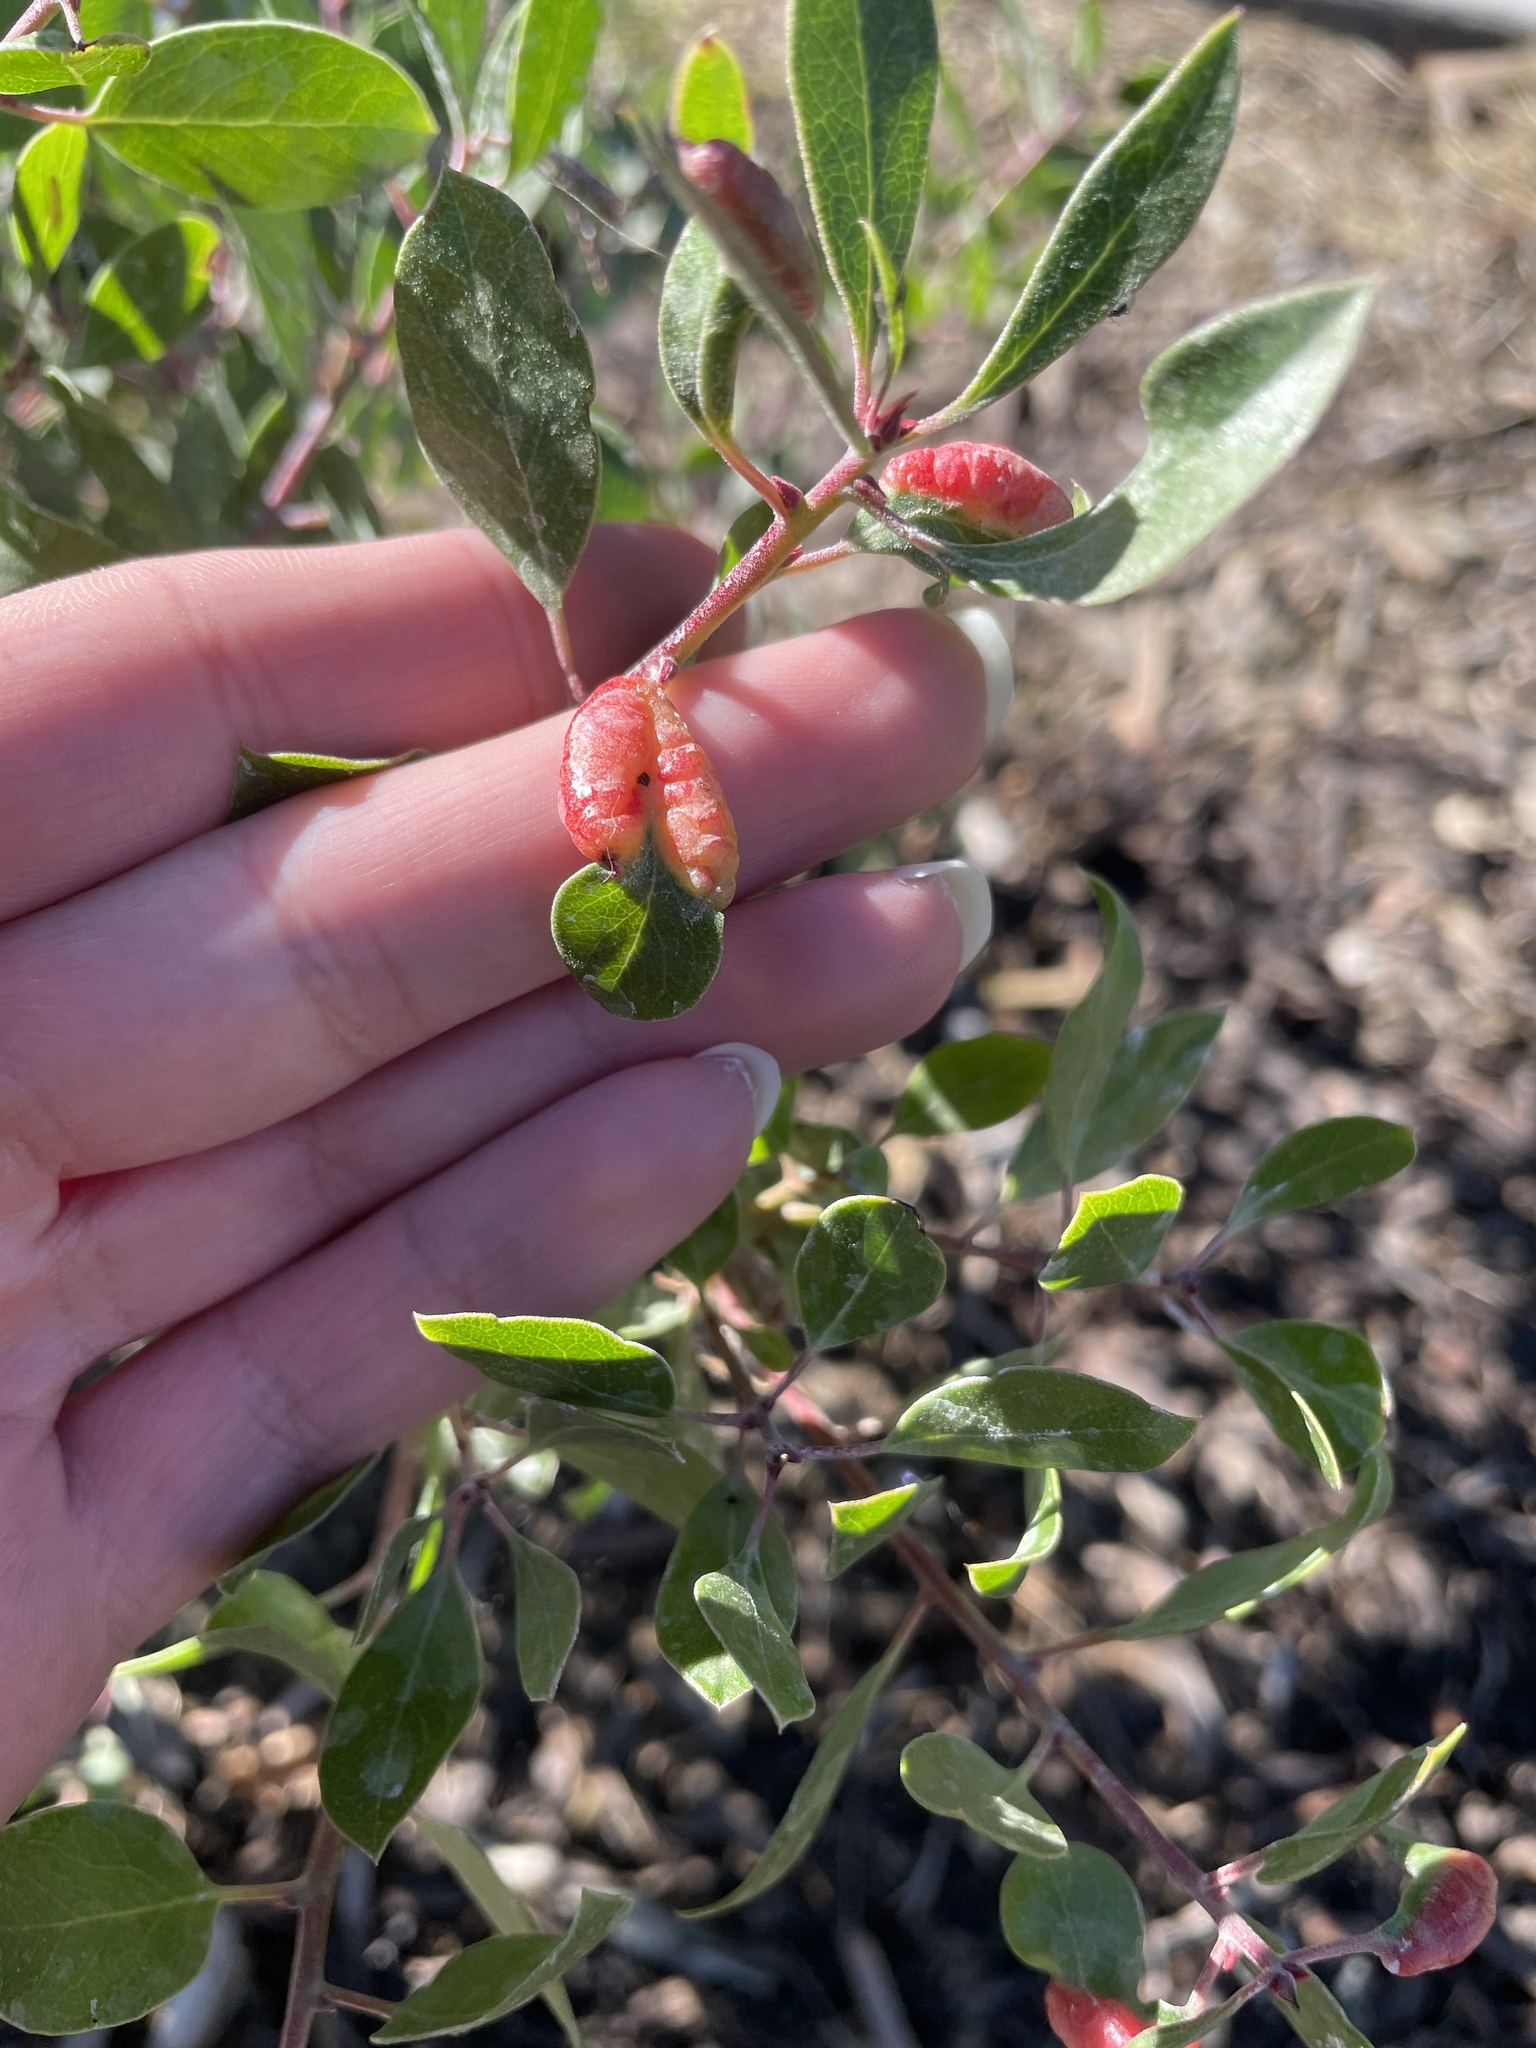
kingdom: Animalia
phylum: Arthropoda
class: Insecta
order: Hemiptera
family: Aphididae
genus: Tamalia
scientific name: Tamalia coweni
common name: Manzanita leafgall aphid
